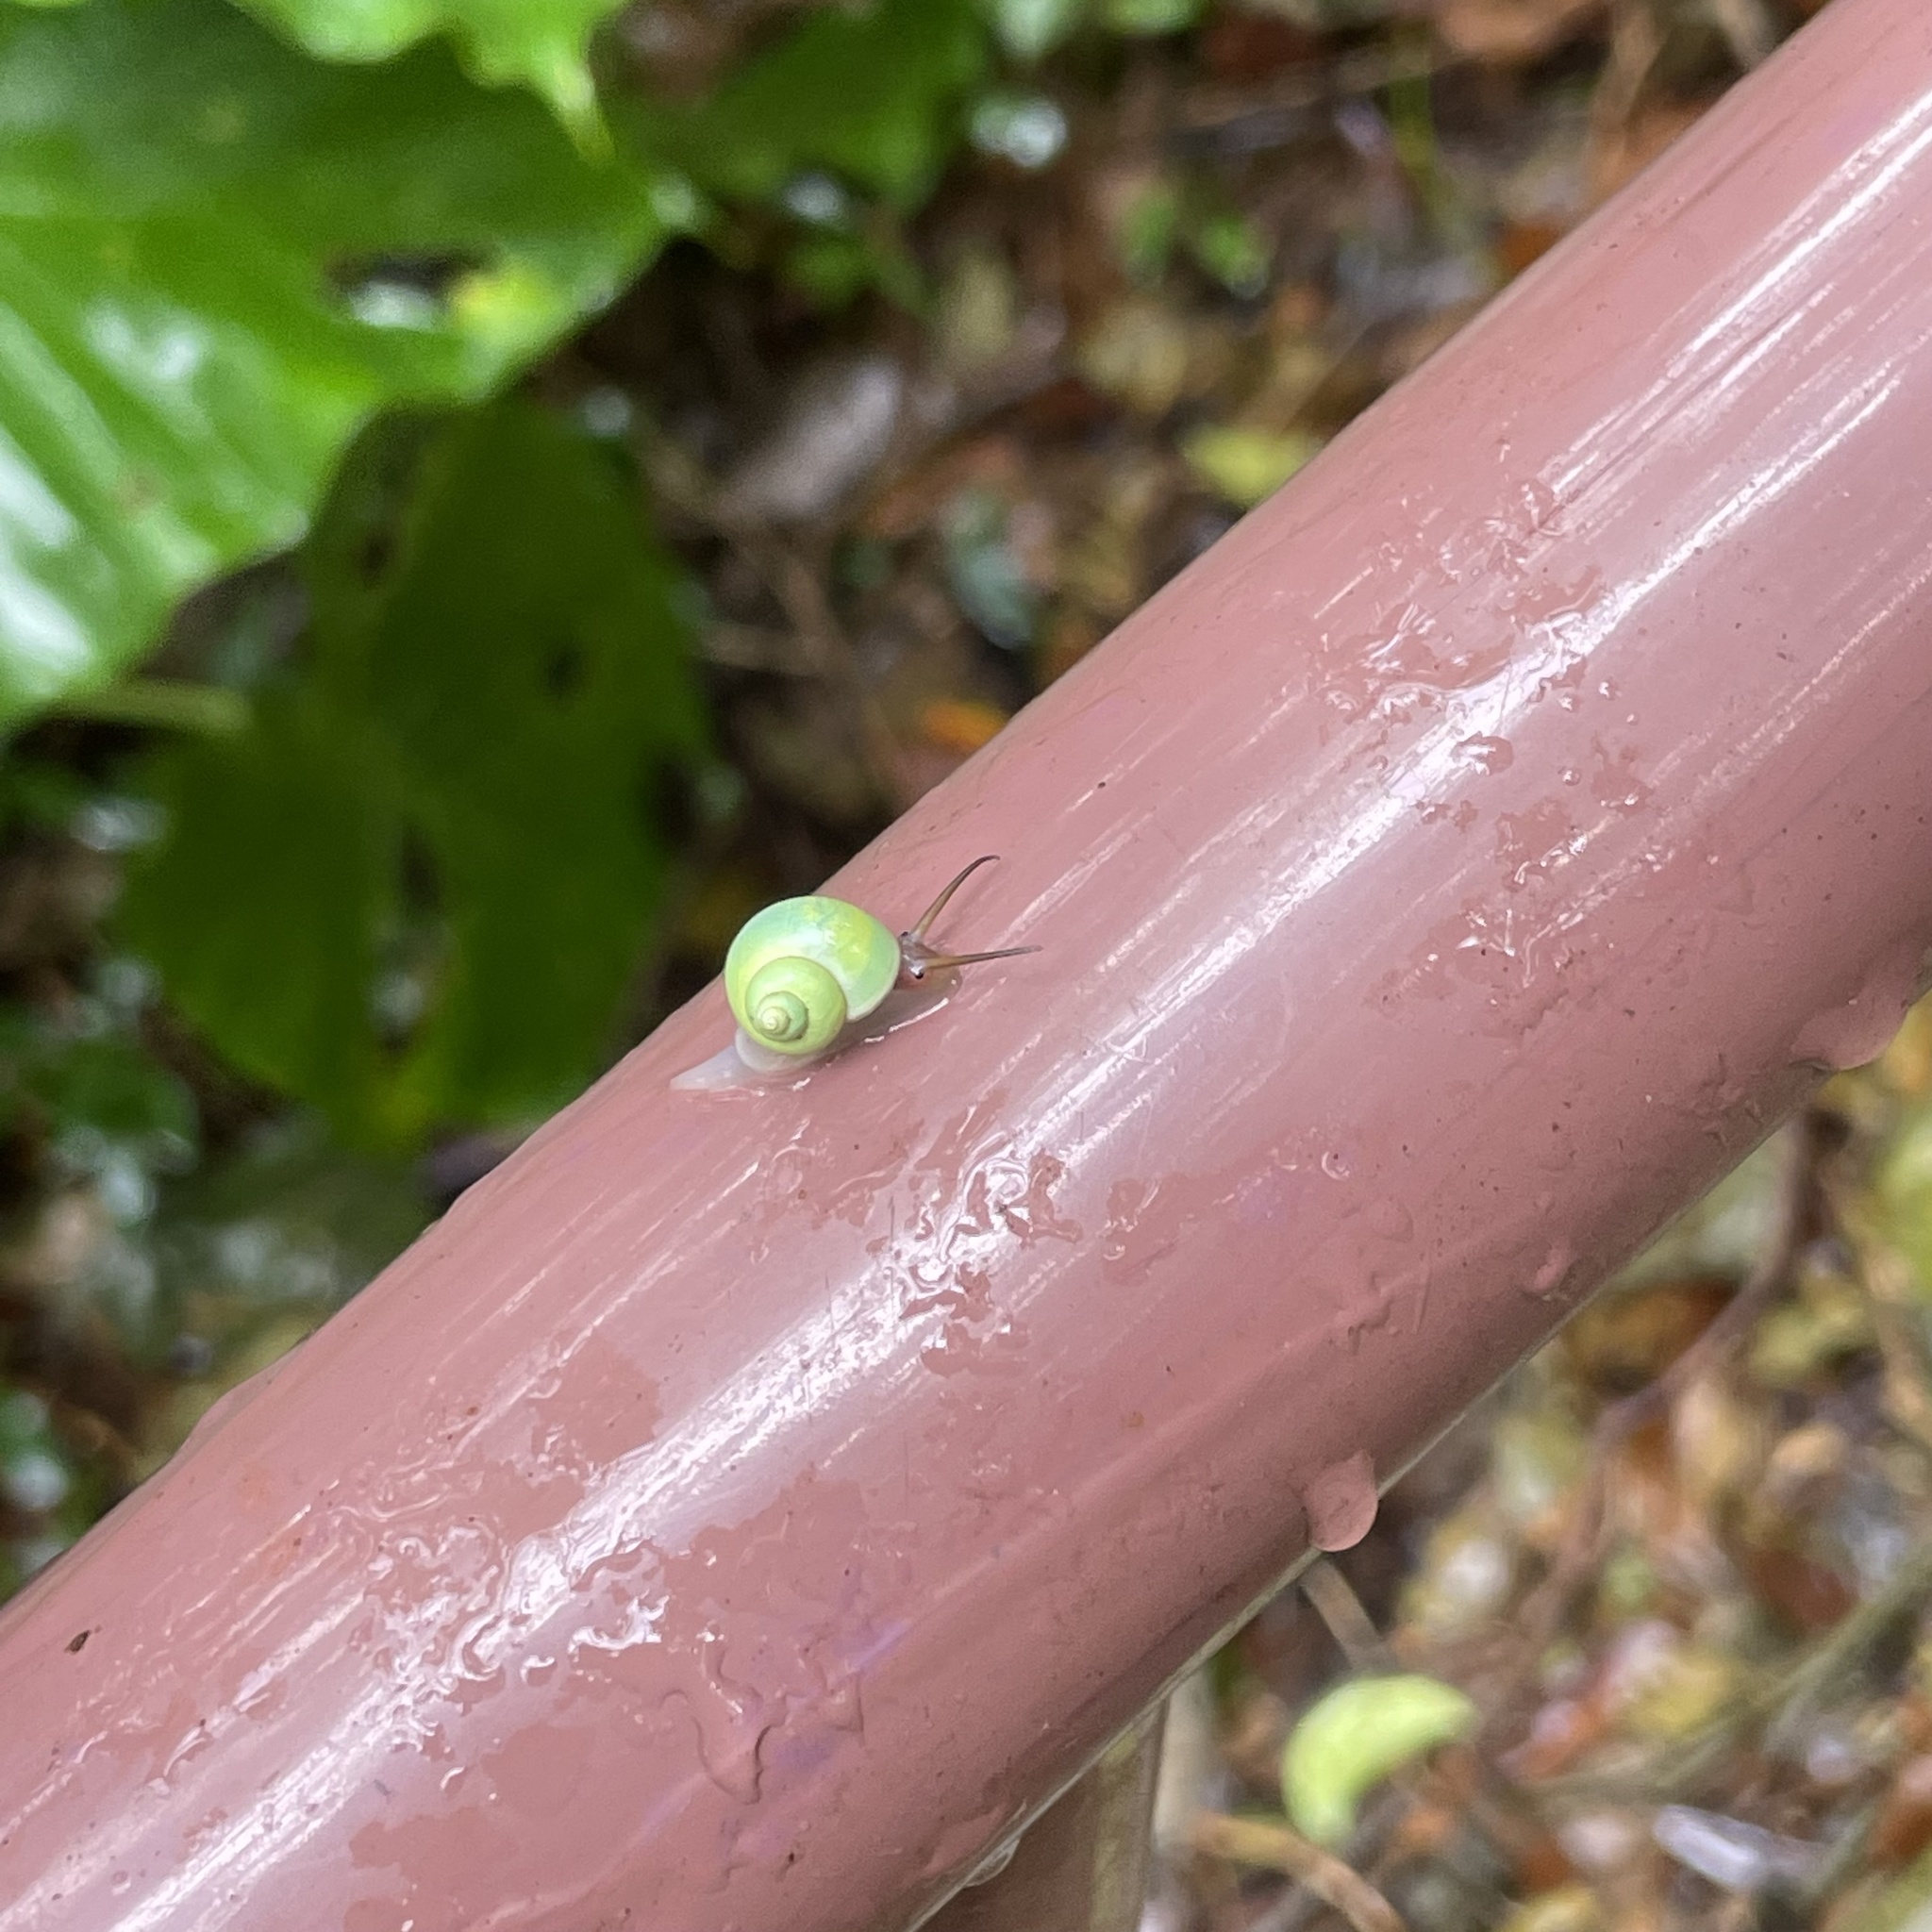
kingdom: Animalia
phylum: Mollusca
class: Gastropoda
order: Architaenioglossa
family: Cyclophoridae
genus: Leptopoma
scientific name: Leptopoma nitidum
